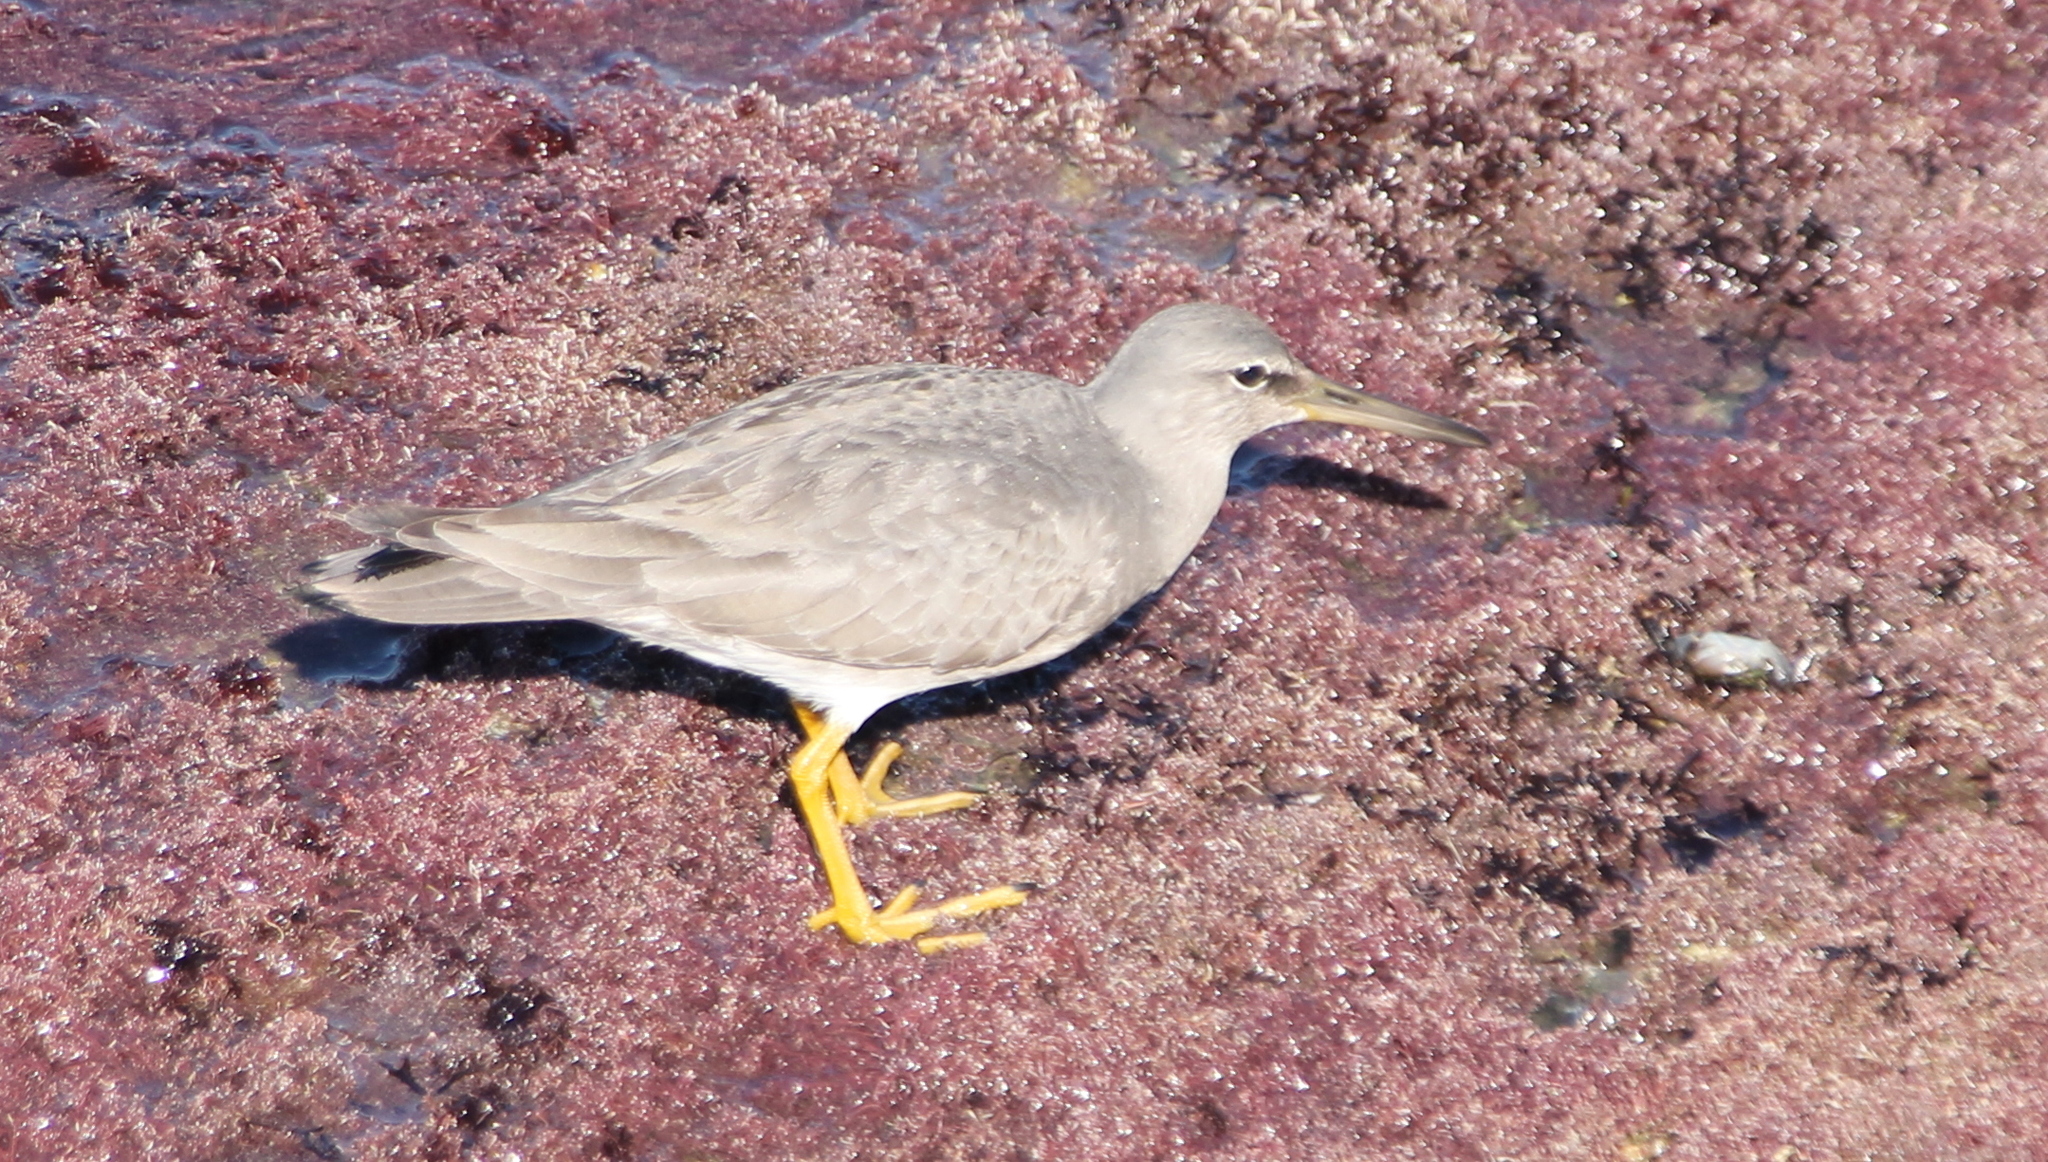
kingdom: Animalia
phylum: Chordata
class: Aves
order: Charadriiformes
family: Scolopacidae
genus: Tringa
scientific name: Tringa incana
